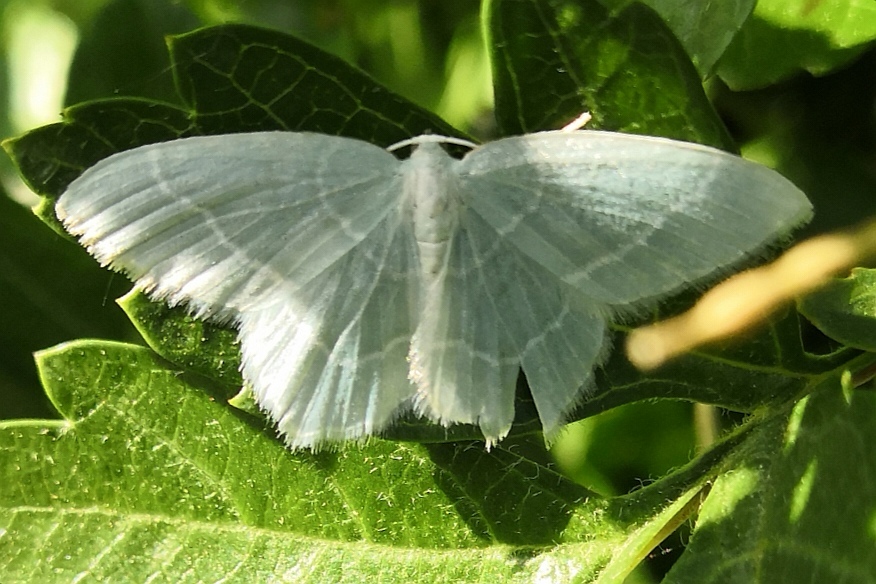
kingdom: Animalia
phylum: Arthropoda
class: Insecta
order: Lepidoptera
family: Geometridae
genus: Jodis
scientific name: Jodis lactearia
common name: Little emerald
